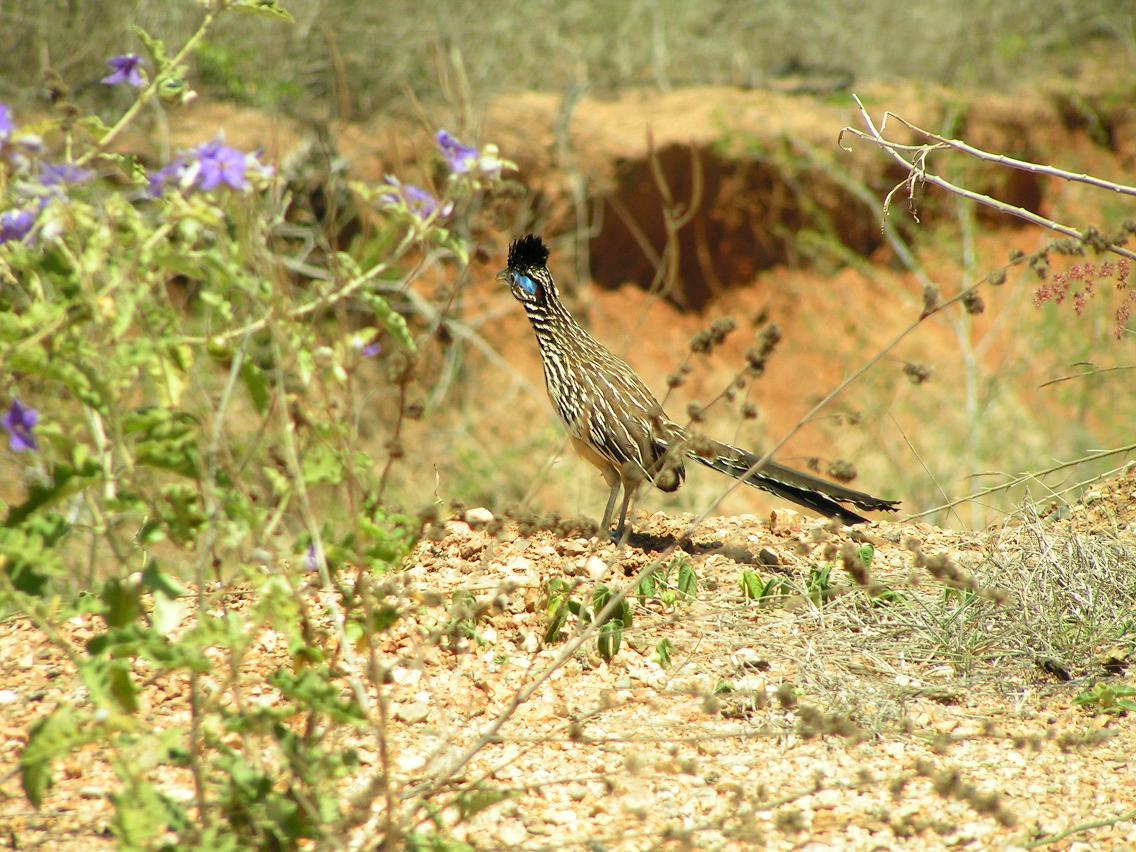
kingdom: Animalia
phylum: Chordata
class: Aves
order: Cuculiformes
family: Cuculidae
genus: Geococcyx
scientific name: Geococcyx velox
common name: Lesser roadrunner
